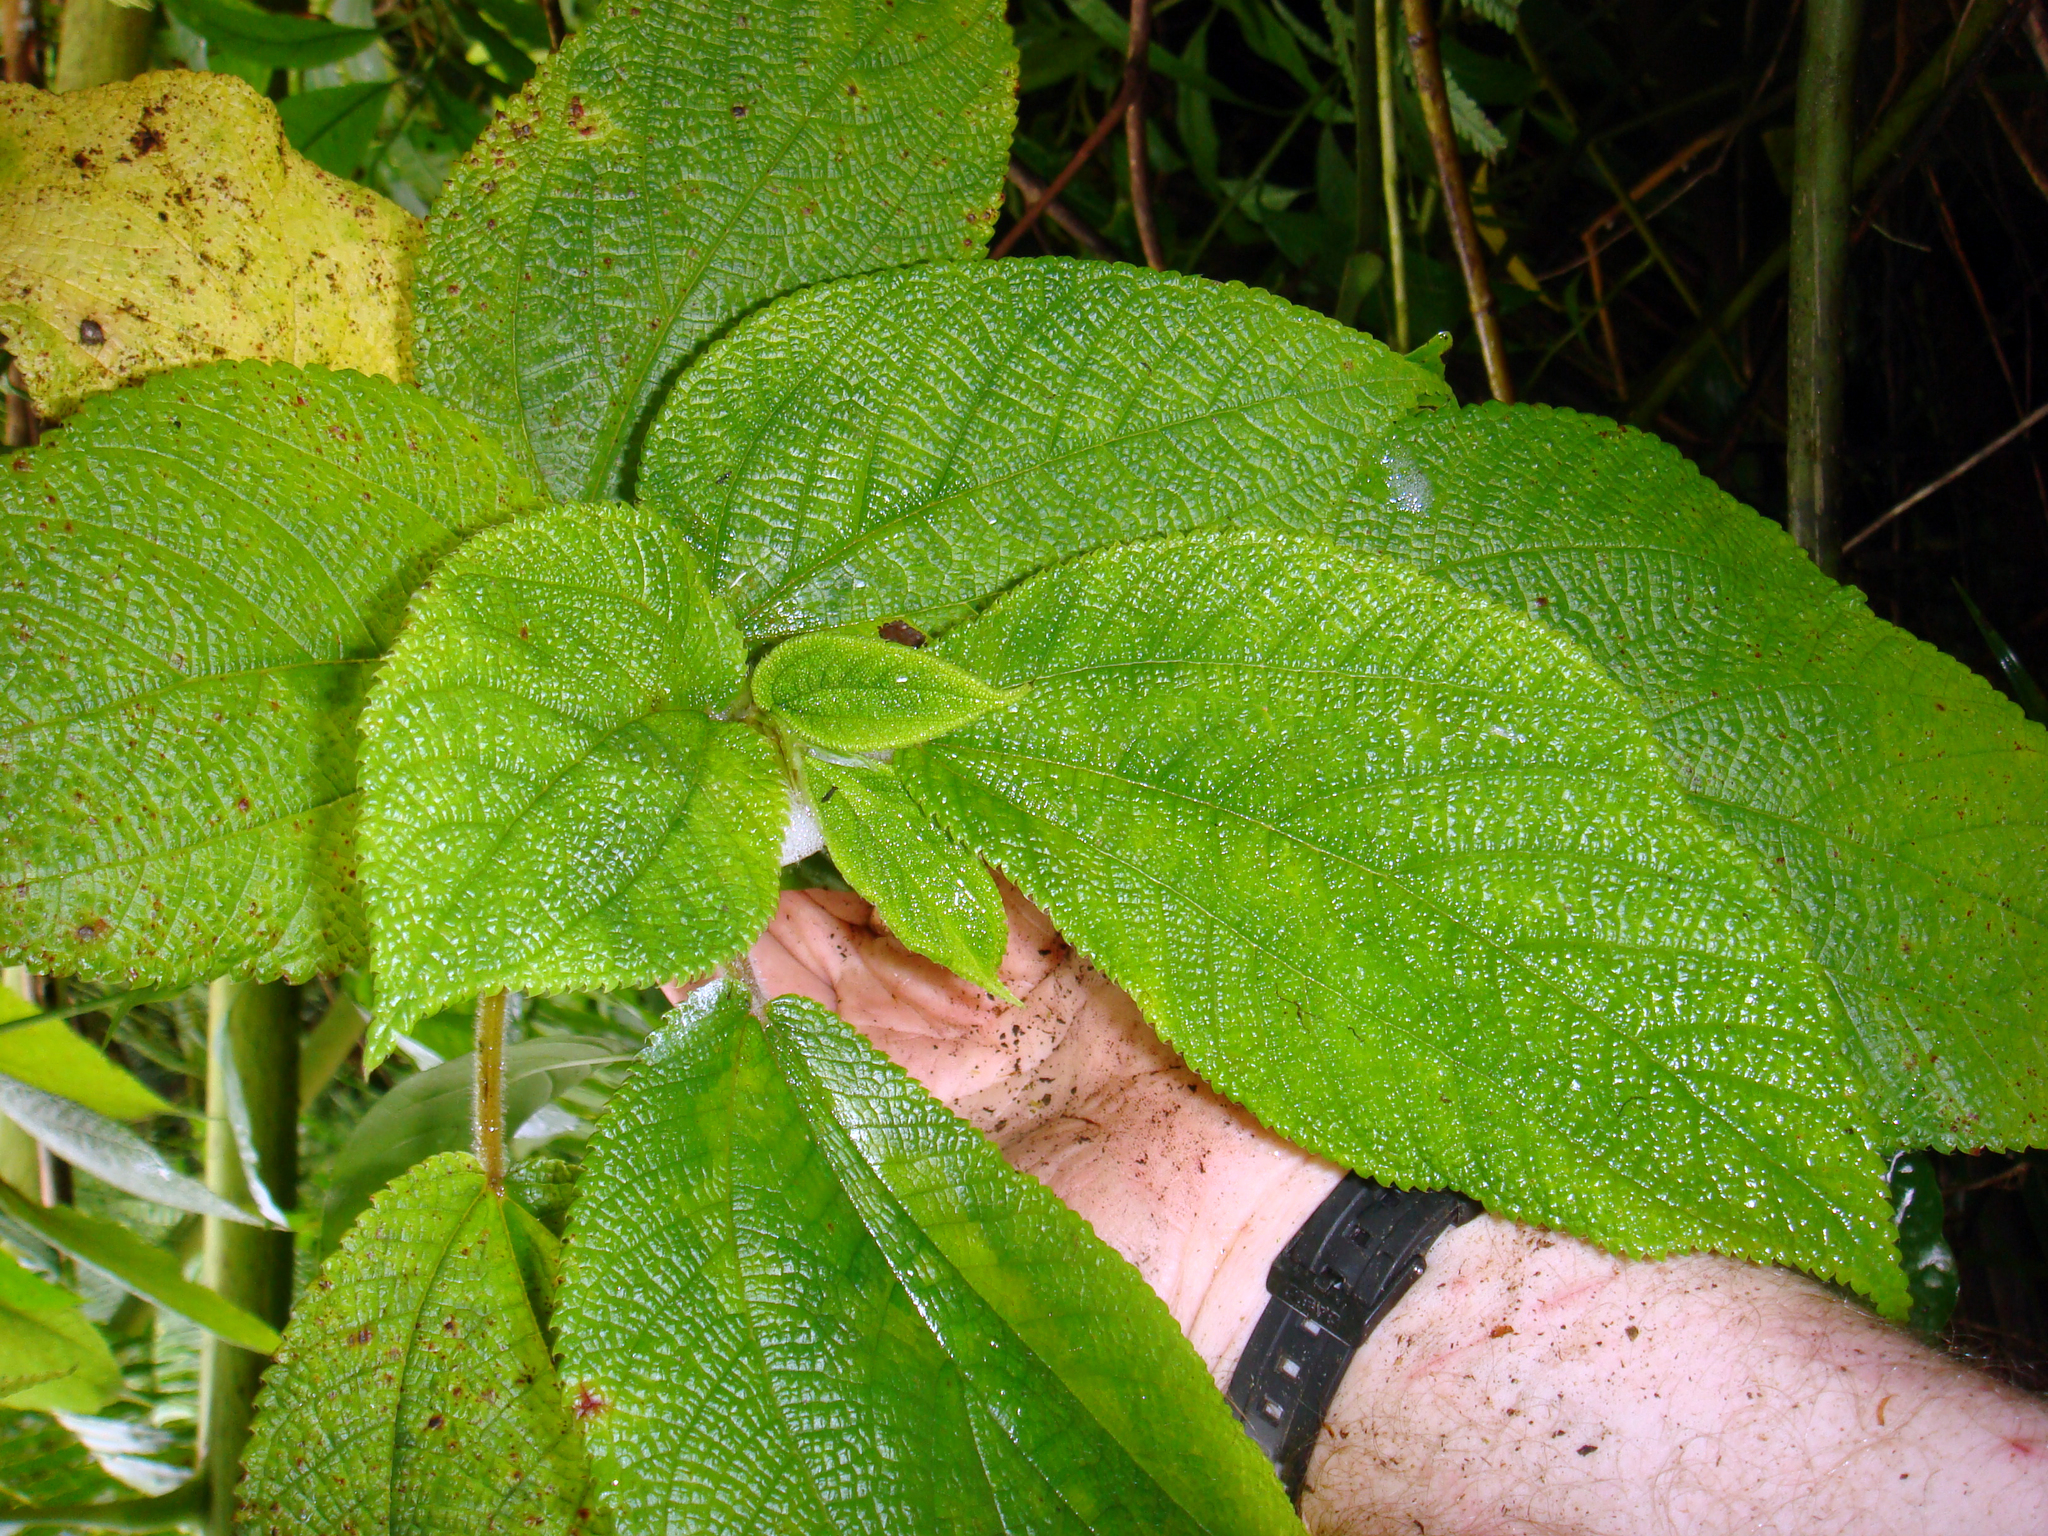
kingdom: Plantae
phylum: Tracheophyta
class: Magnoliopsida
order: Rosales
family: Urticaceae
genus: Cypholophus
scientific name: Cypholophus moluccanus
